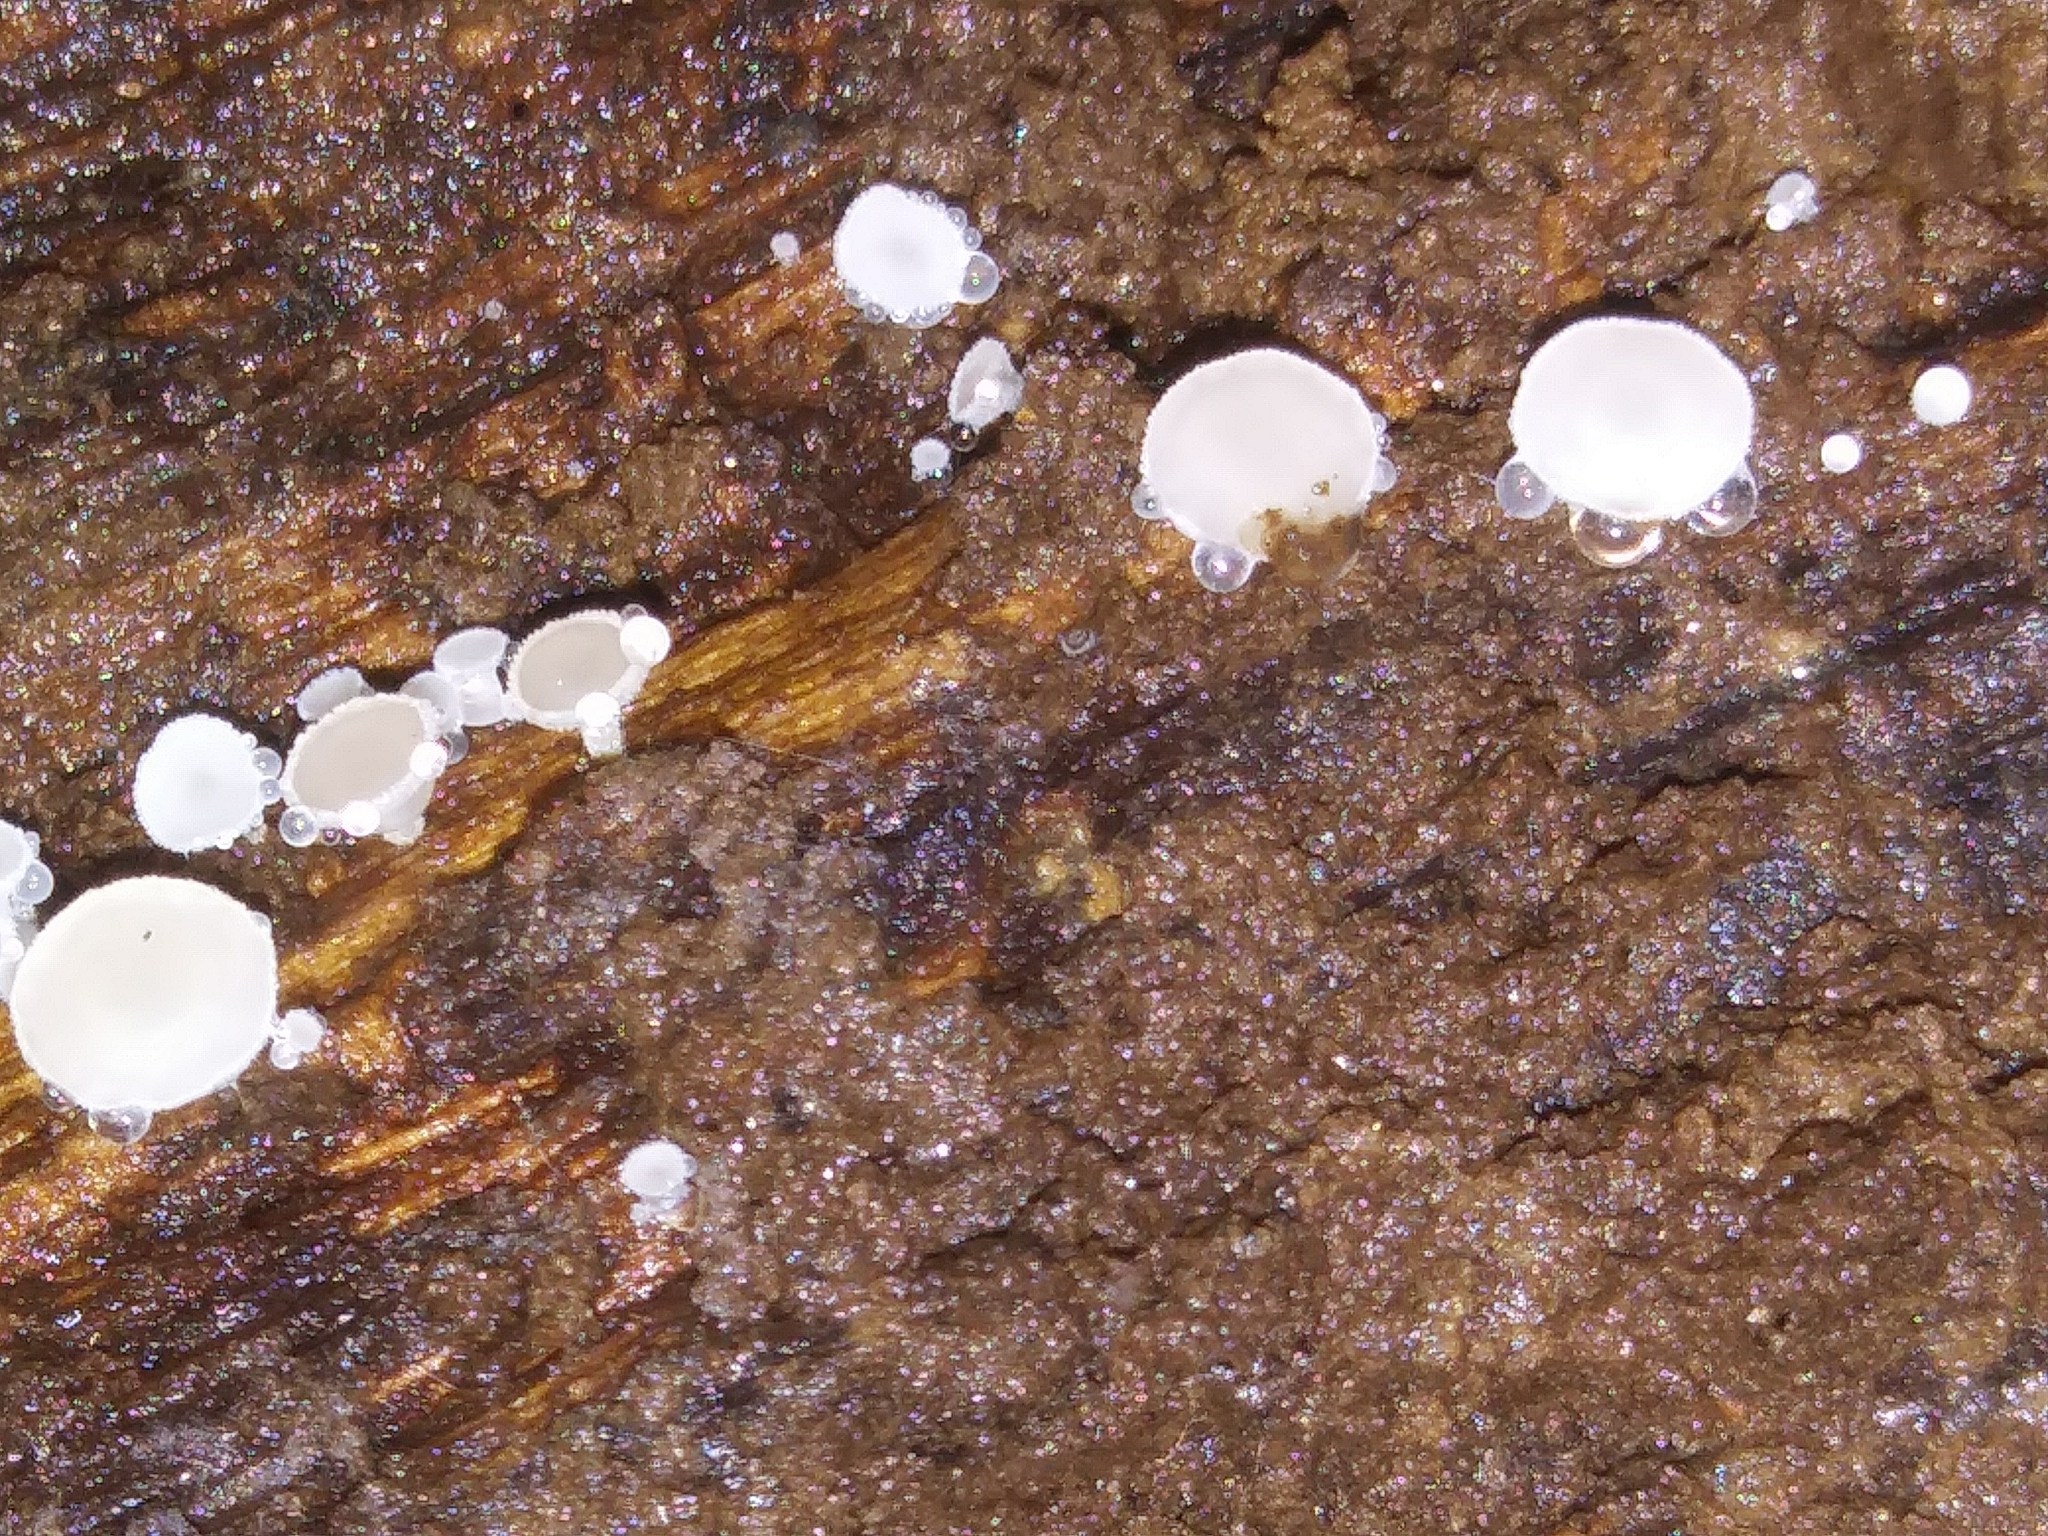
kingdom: Fungi
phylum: Ascomycota
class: Leotiomycetes
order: Helotiales
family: Lachnaceae
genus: Lachnum
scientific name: Lachnum virgineum
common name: Snowy disco
